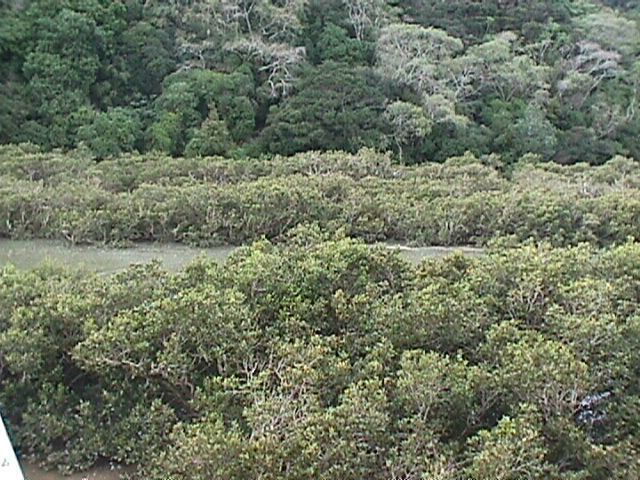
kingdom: Plantae
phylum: Tracheophyta
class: Magnoliopsida
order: Lamiales
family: Acanthaceae
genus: Avicennia
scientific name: Avicennia marina
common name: Gray mangrove
